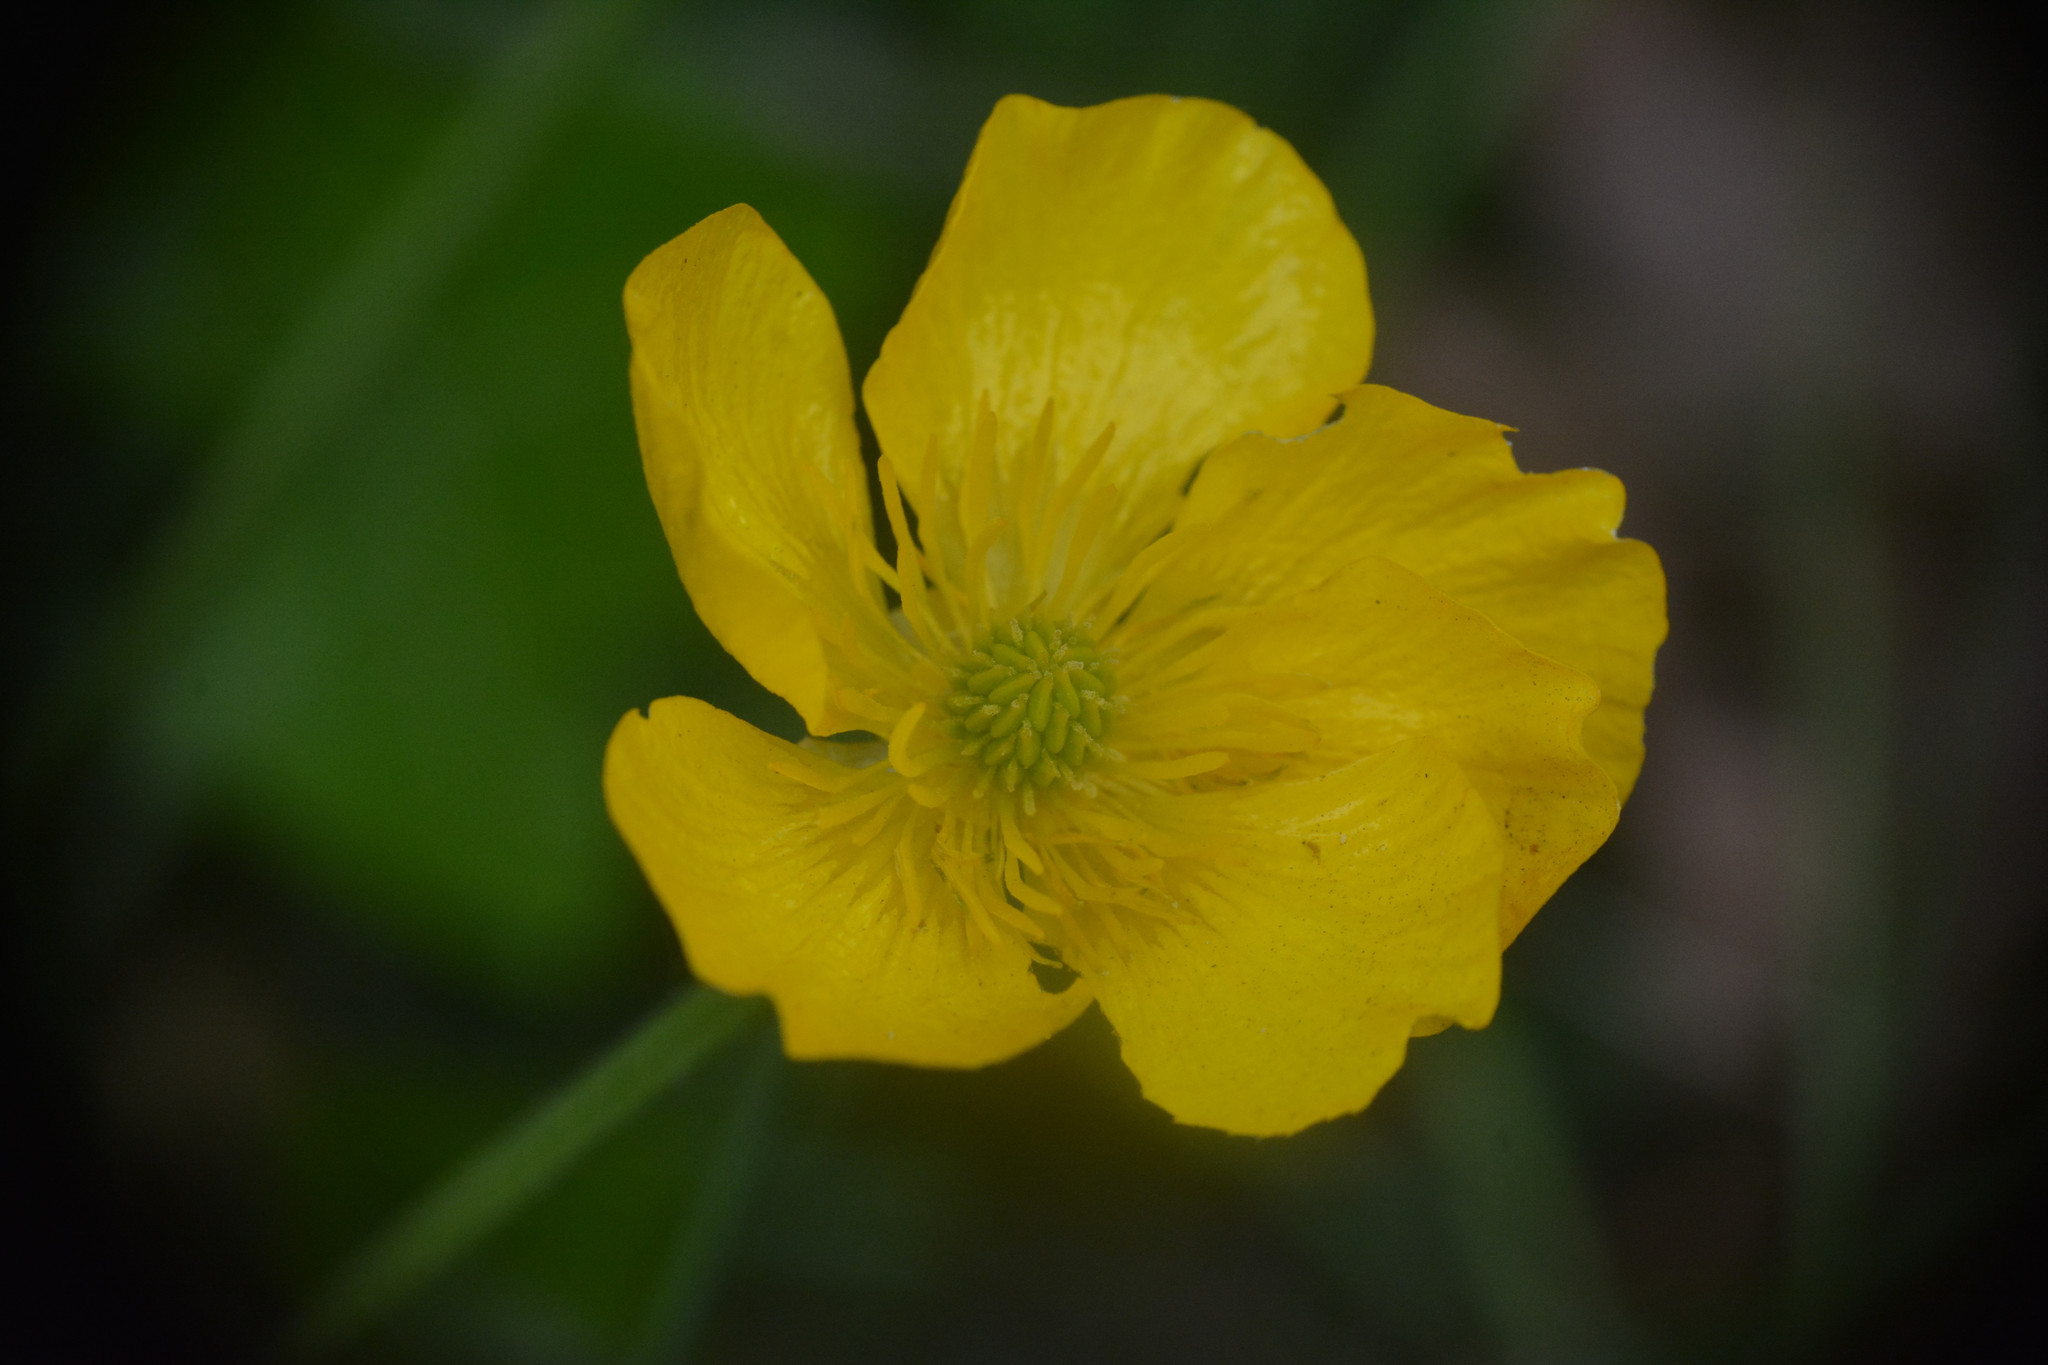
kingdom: Plantae
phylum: Tracheophyta
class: Magnoliopsida
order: Ranunculales
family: Ranunculaceae
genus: Ranunculus
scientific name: Ranunculus bulbosus
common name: Bulbous buttercup
